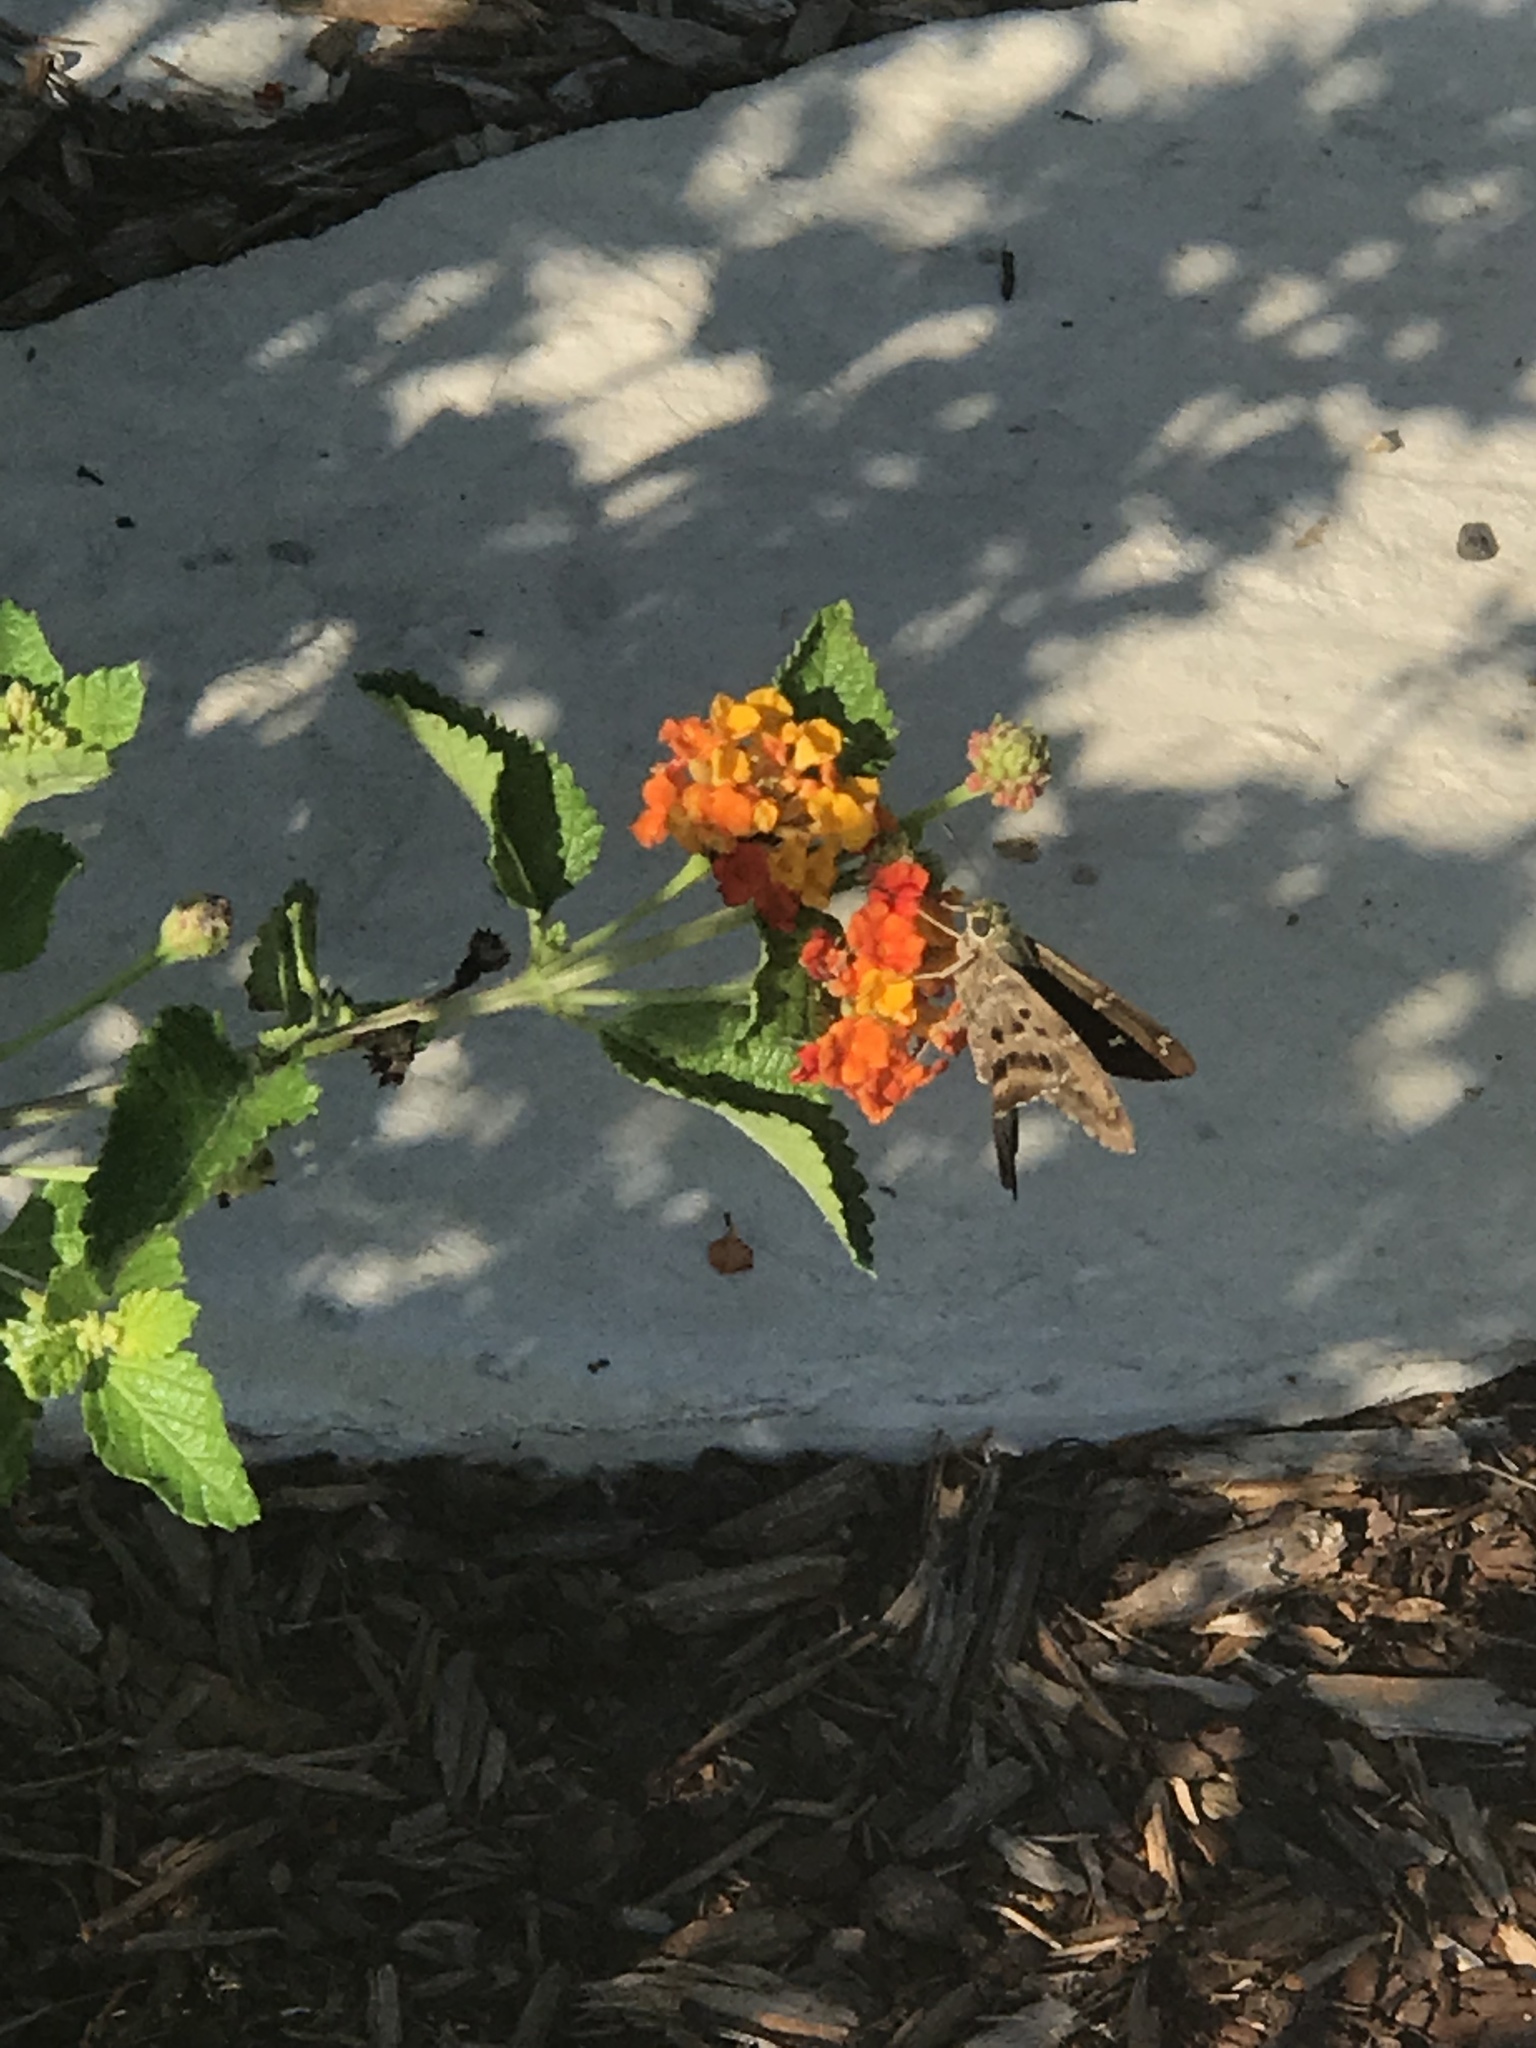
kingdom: Animalia
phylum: Arthropoda
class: Insecta
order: Lepidoptera
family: Hesperiidae
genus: Urbanus
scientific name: Urbanus proteus
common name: Long-tailed skipper
